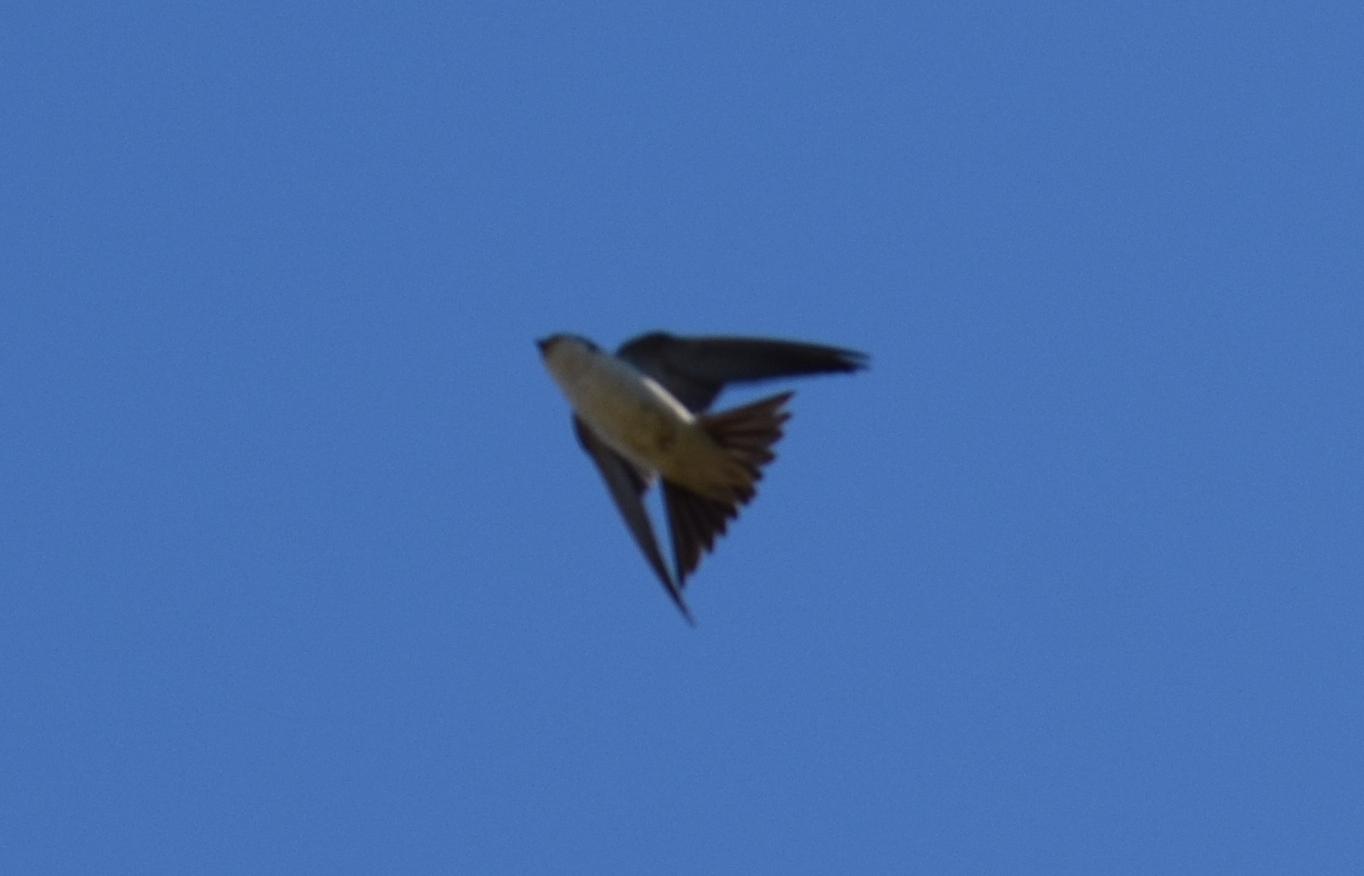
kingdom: Animalia
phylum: Chordata
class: Aves
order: Passeriformes
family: Hirundinidae
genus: Delichon
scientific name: Delichon urbicum
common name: Common house martin
